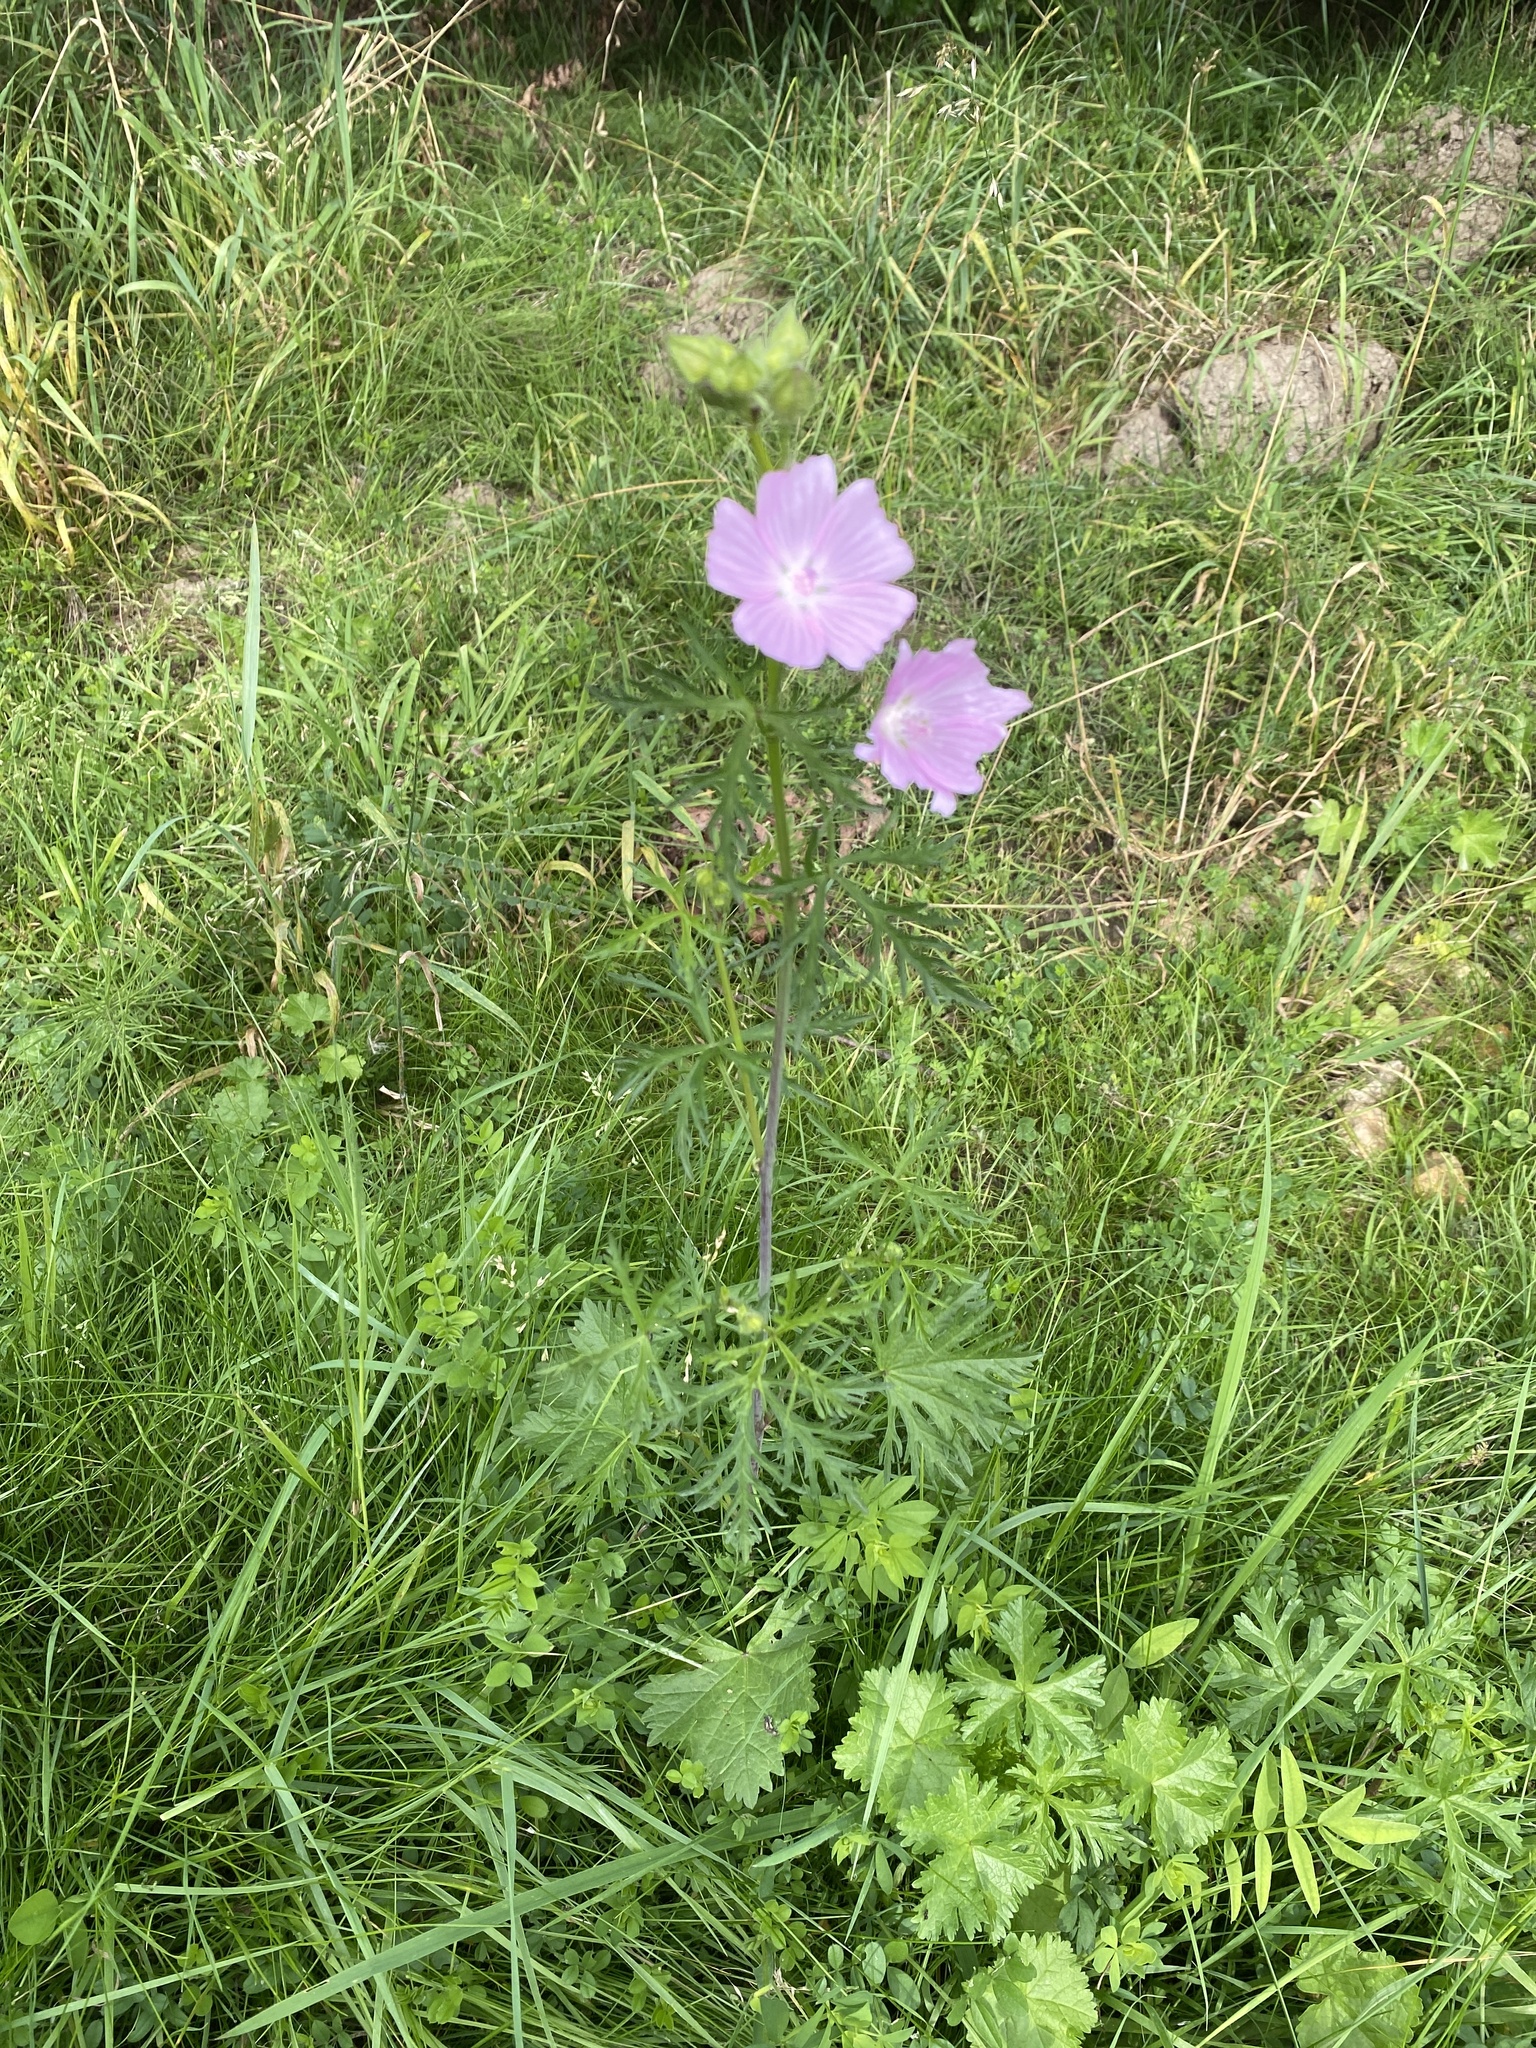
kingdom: Plantae
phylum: Tracheophyta
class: Magnoliopsida
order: Malvales
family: Malvaceae
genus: Malva
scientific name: Malva moschata
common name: Musk mallow
